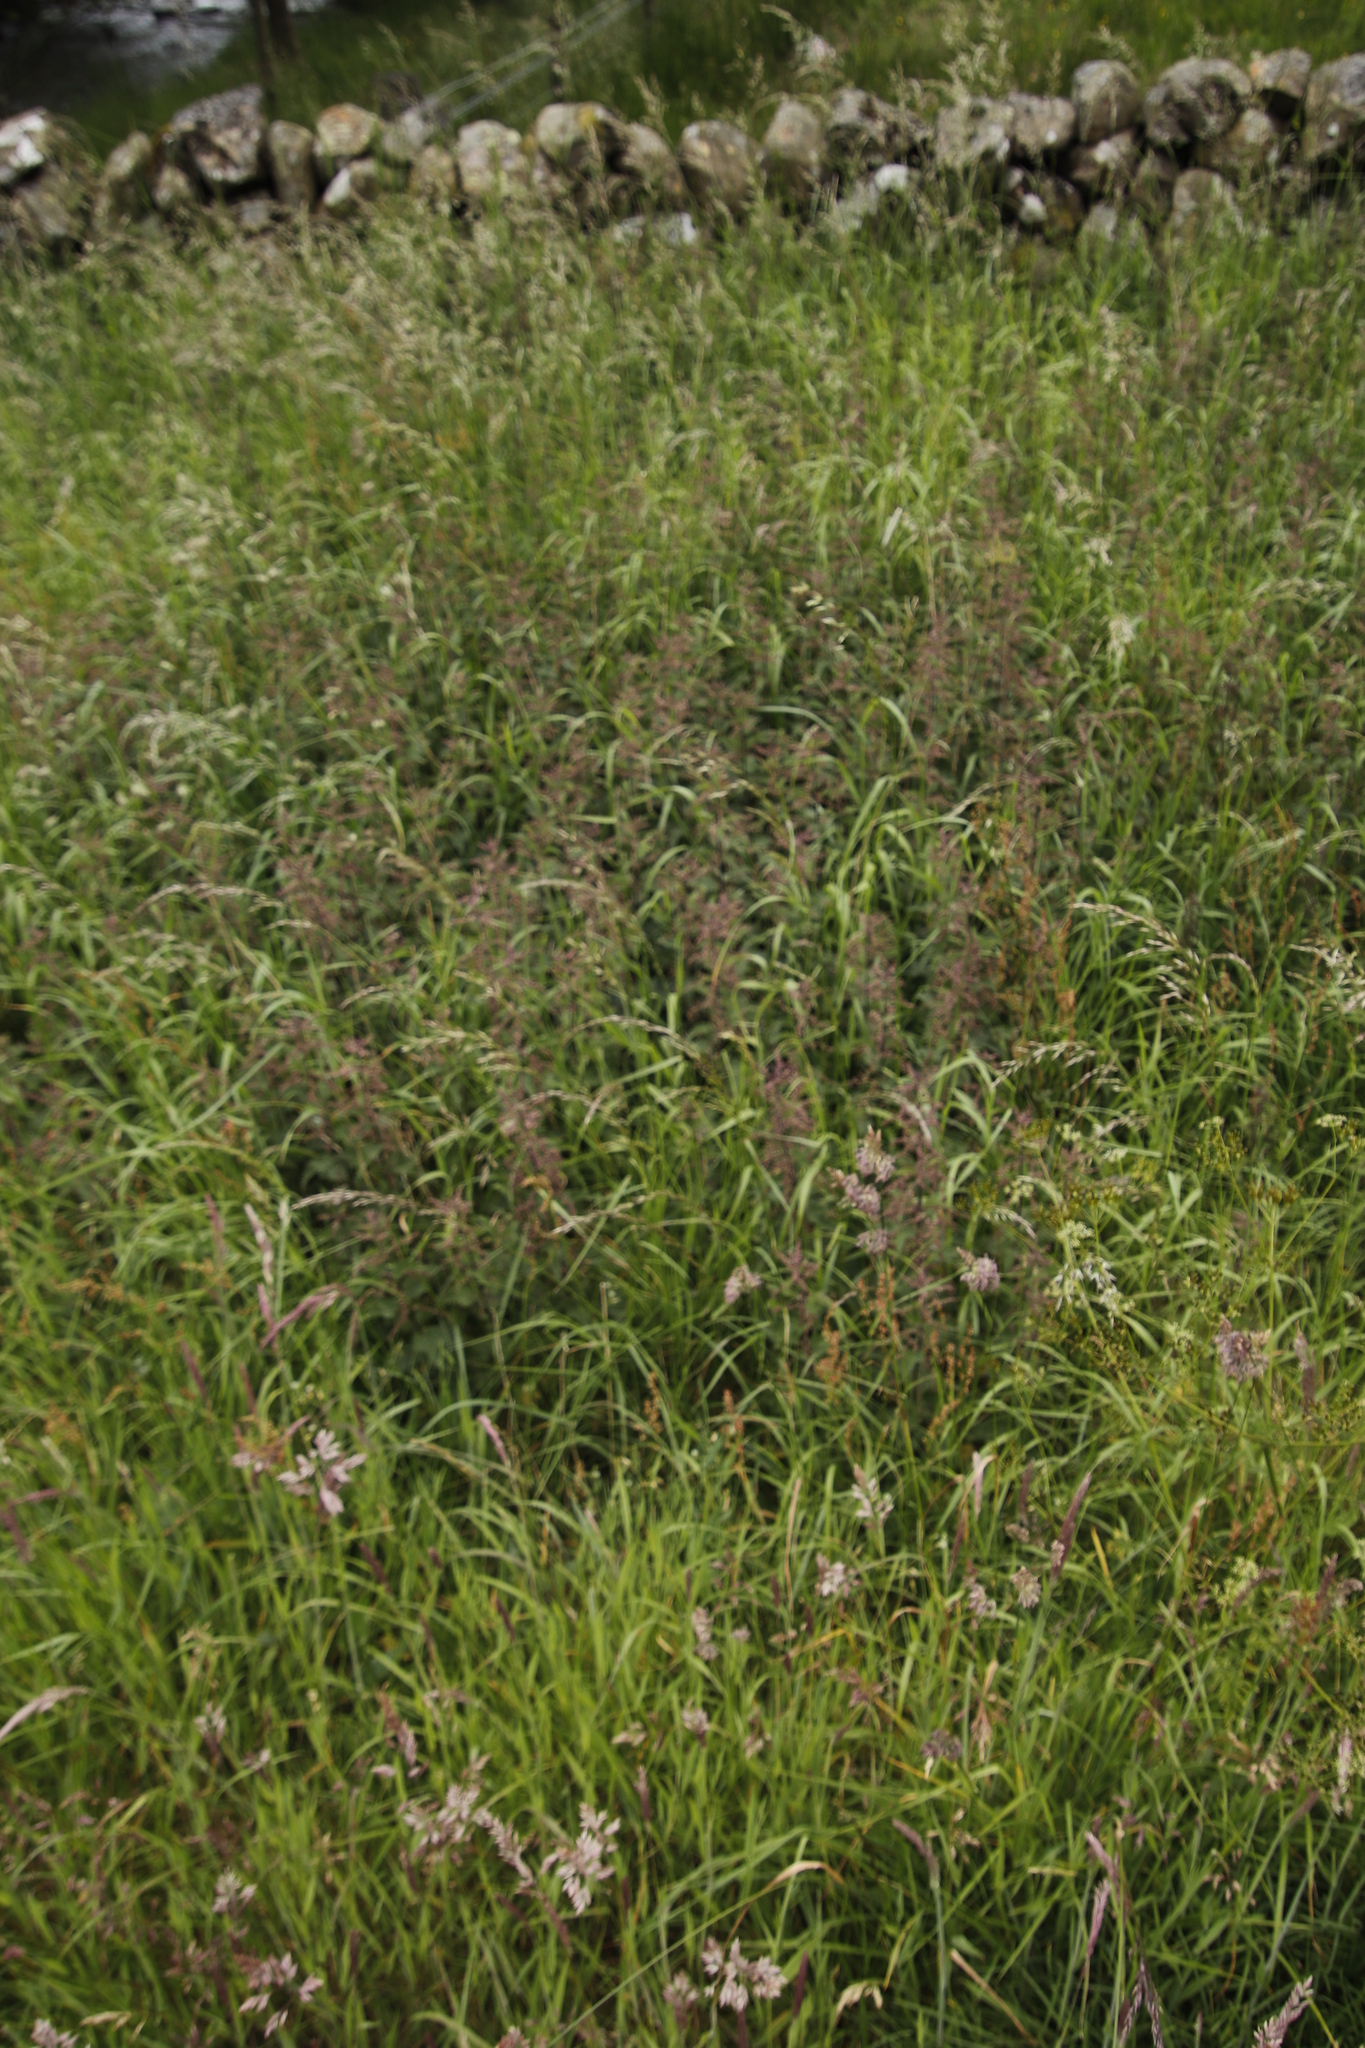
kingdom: Plantae
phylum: Tracheophyta
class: Magnoliopsida
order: Rosales
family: Urticaceae
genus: Urtica
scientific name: Urtica dioica
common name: Common nettle
